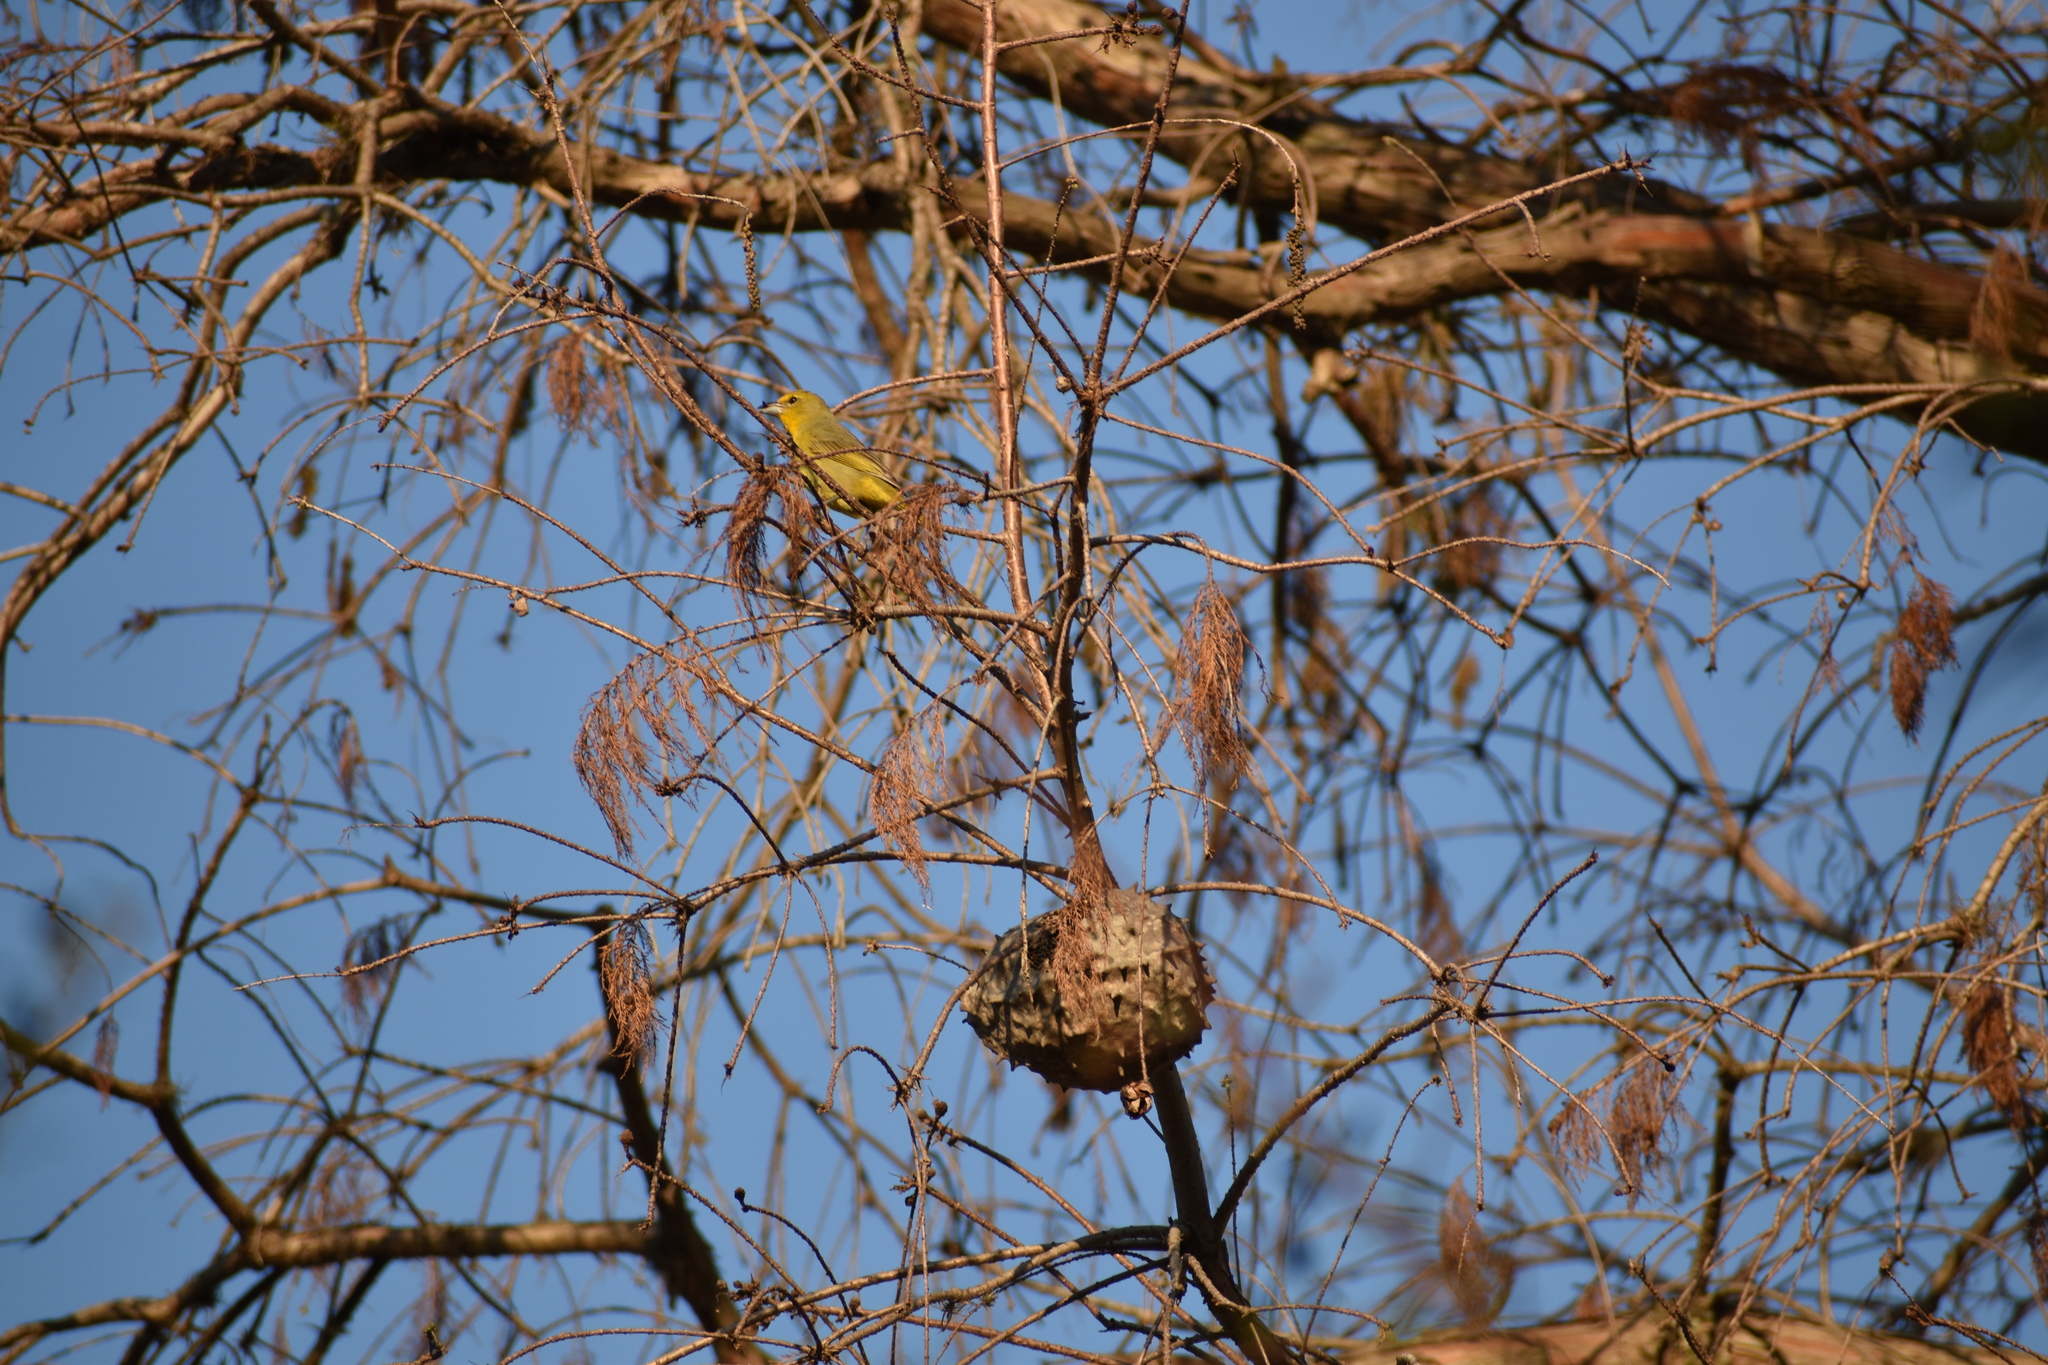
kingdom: Animalia
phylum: Chordata
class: Aves
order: Passeriformes
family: Cardinalidae
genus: Piranga
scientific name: Piranga flava
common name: Red tanager
